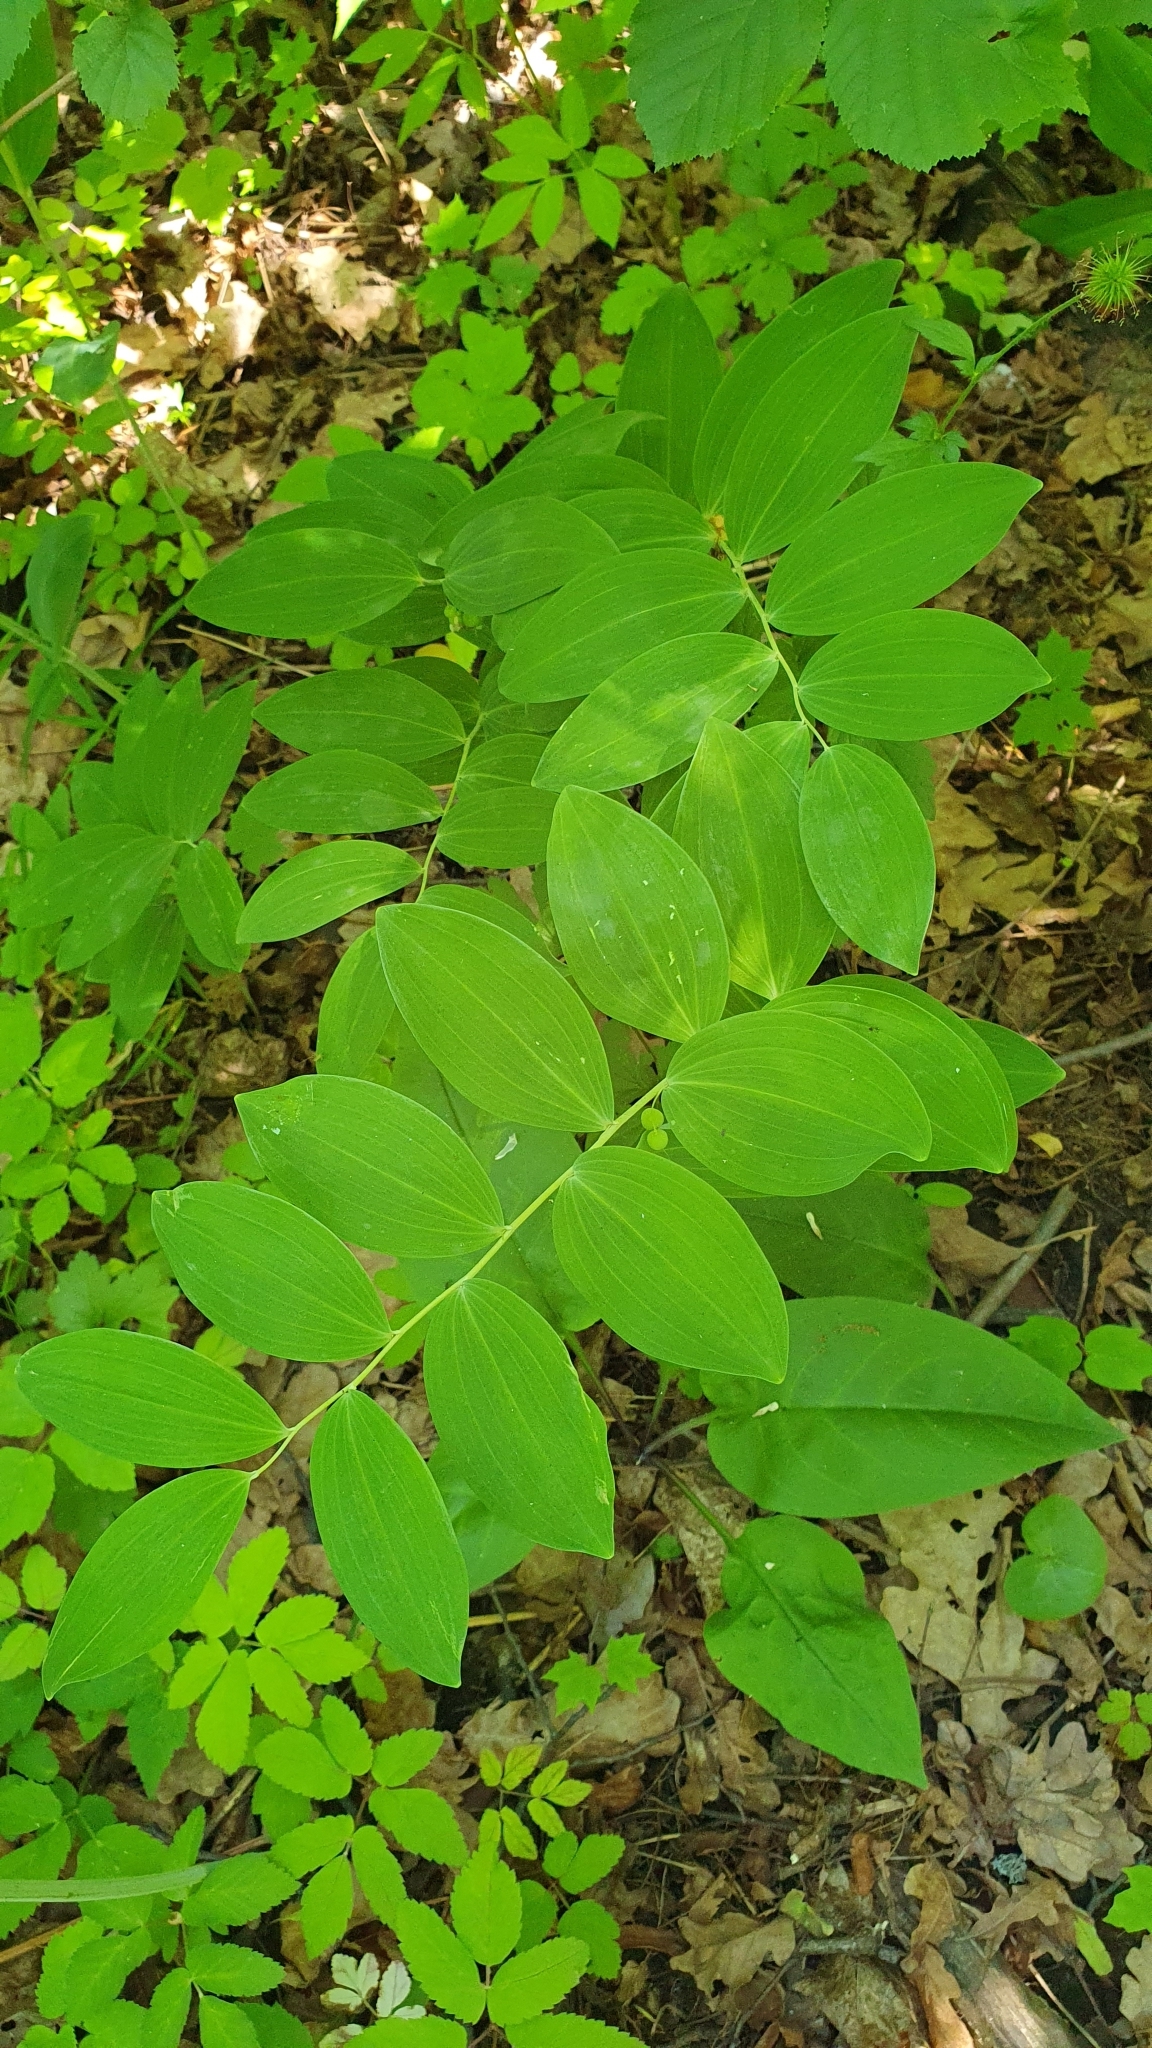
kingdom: Plantae
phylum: Tracheophyta
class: Liliopsida
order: Asparagales
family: Asparagaceae
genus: Polygonatum
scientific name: Polygonatum multiflorum
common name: Solomon's-seal
